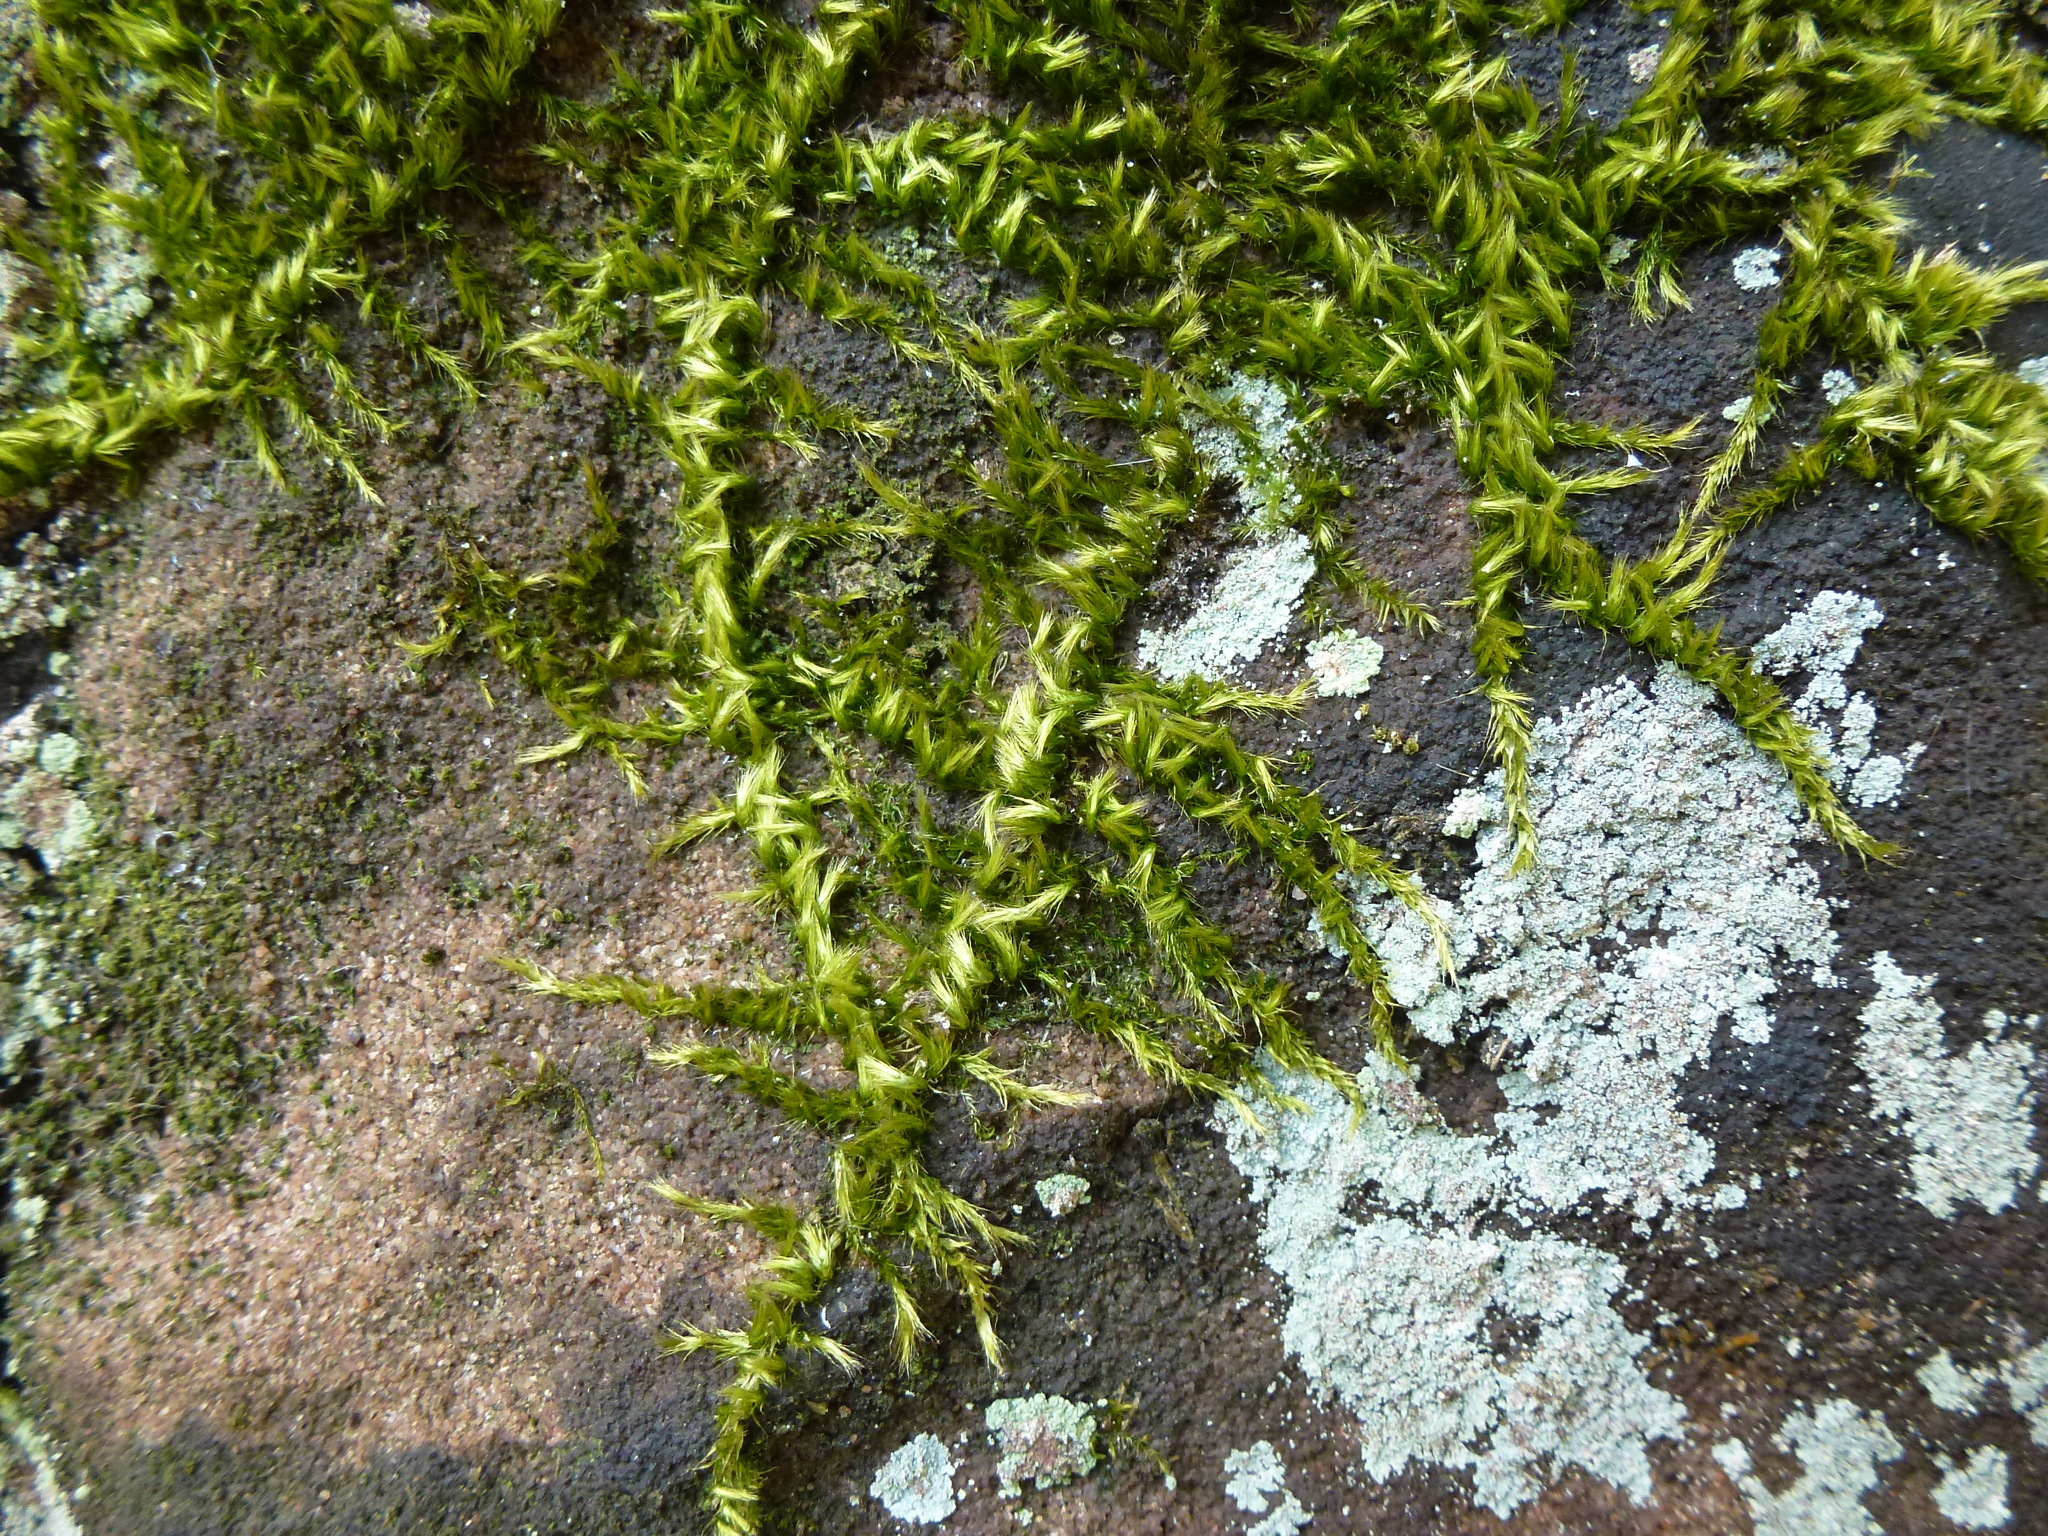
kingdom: Plantae
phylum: Bryophyta
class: Bryopsida
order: Hypnales
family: Brachytheciaceae
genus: Homalothecium
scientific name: Homalothecium sericeum
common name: Silky wall feather-moss
